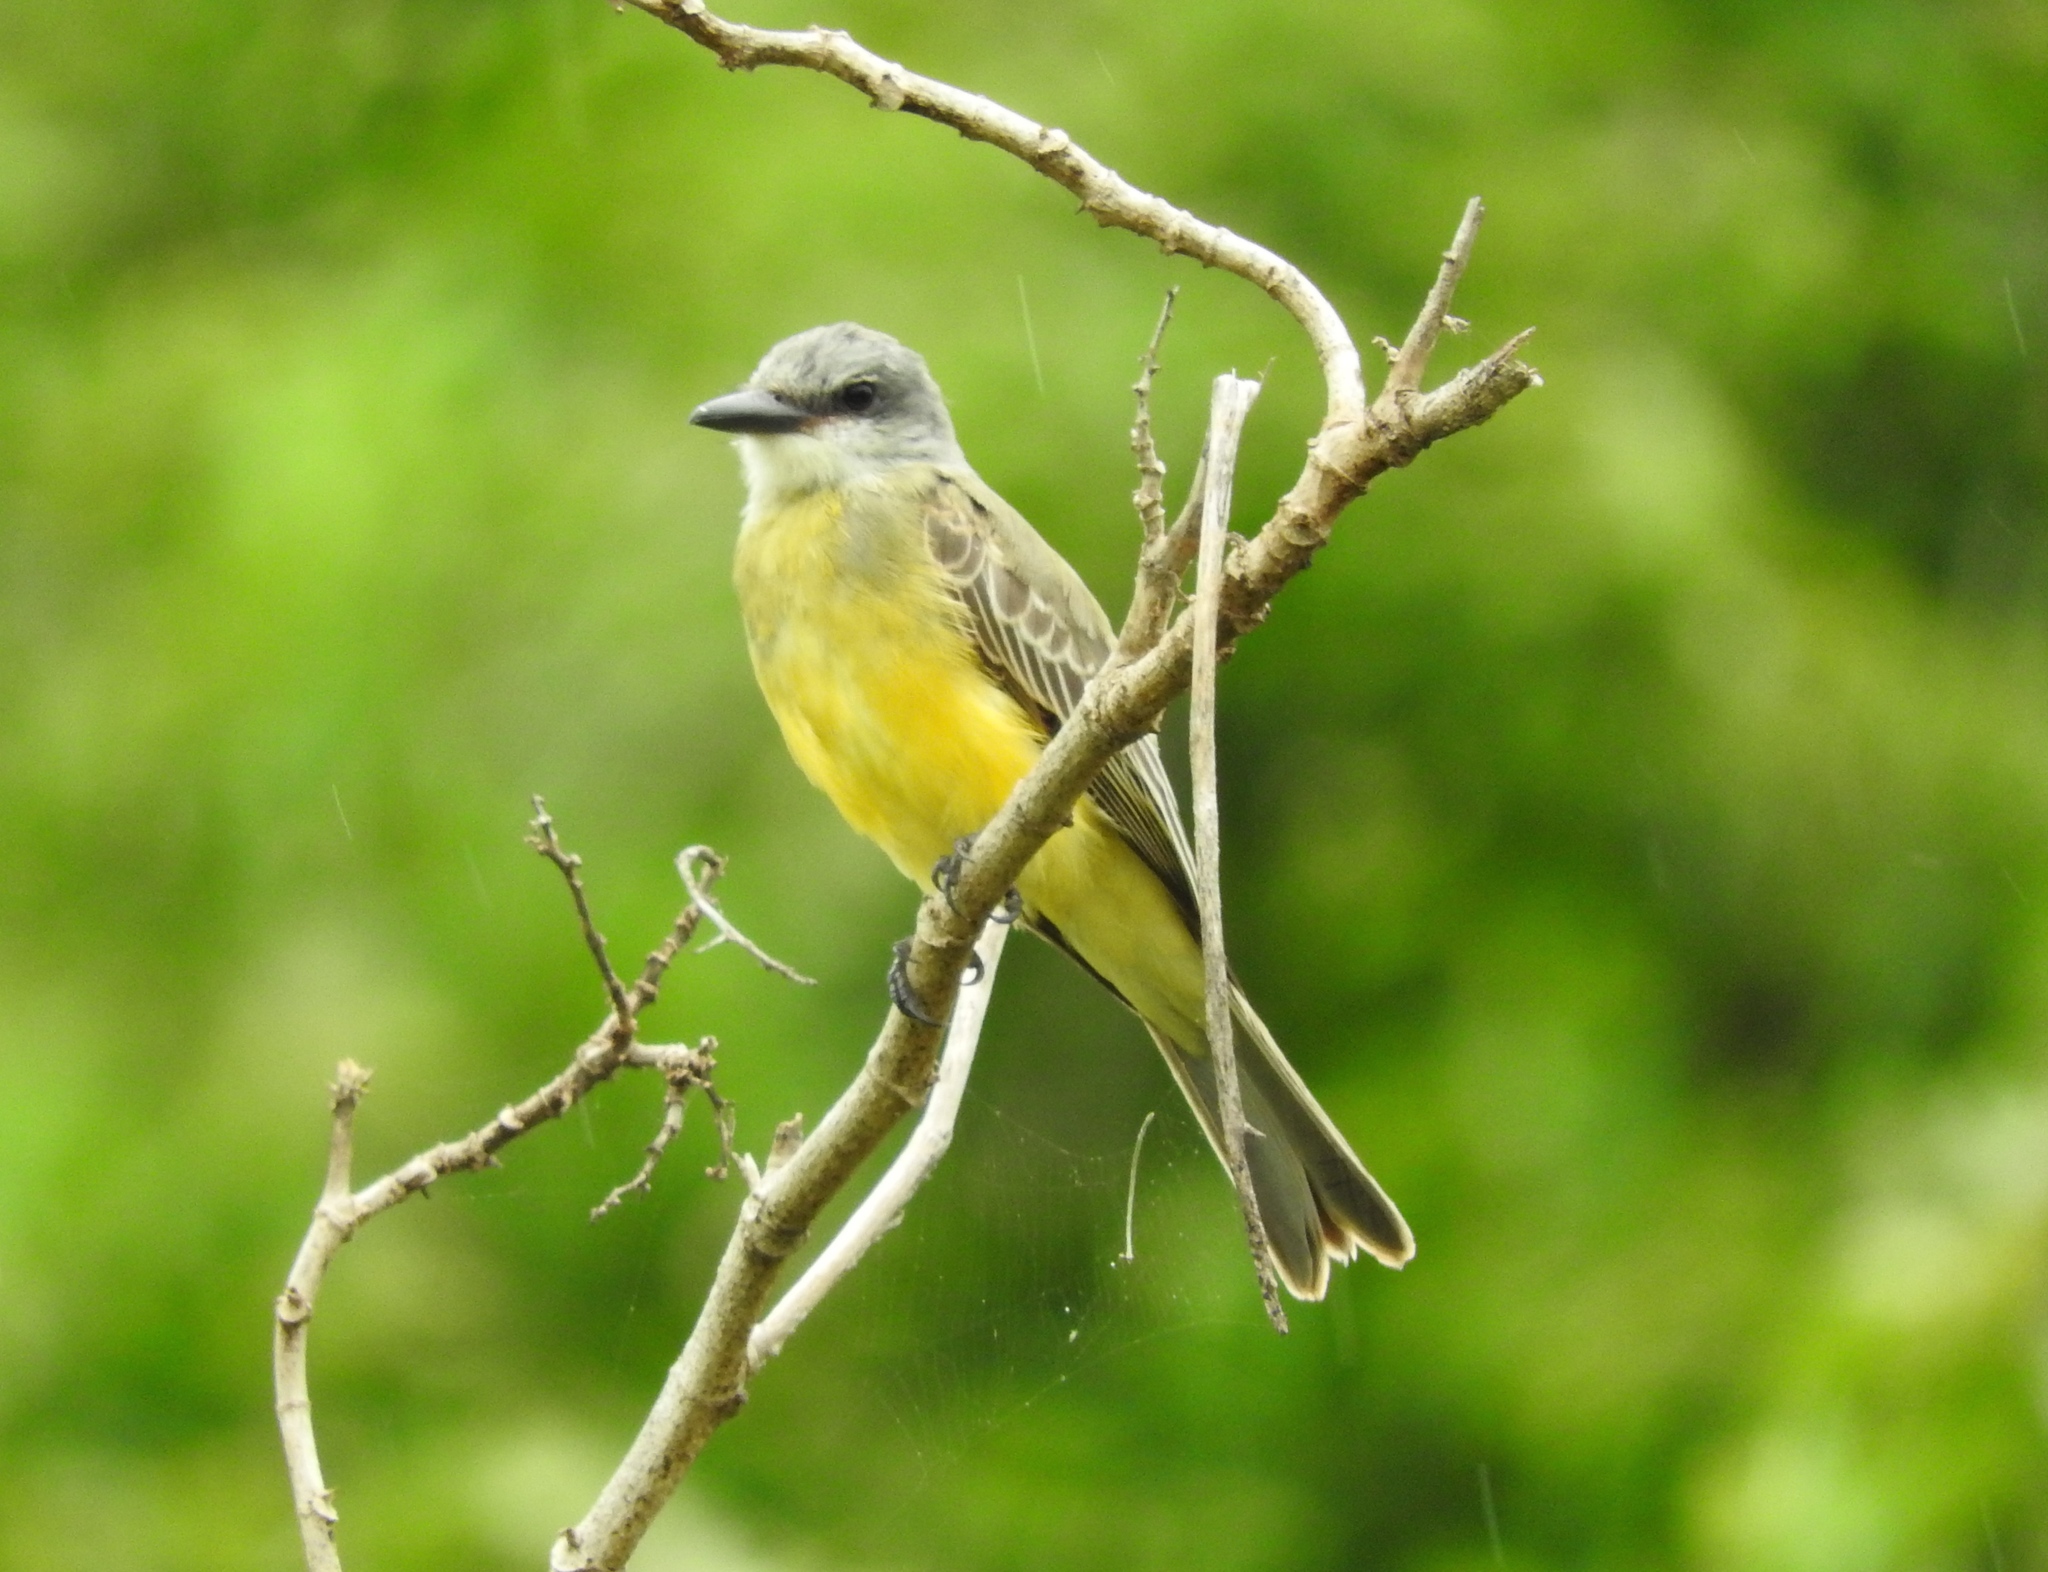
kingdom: Animalia
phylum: Chordata
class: Aves
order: Passeriformes
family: Tyrannidae
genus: Tyrannus
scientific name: Tyrannus melancholicus
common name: Tropical kingbird
